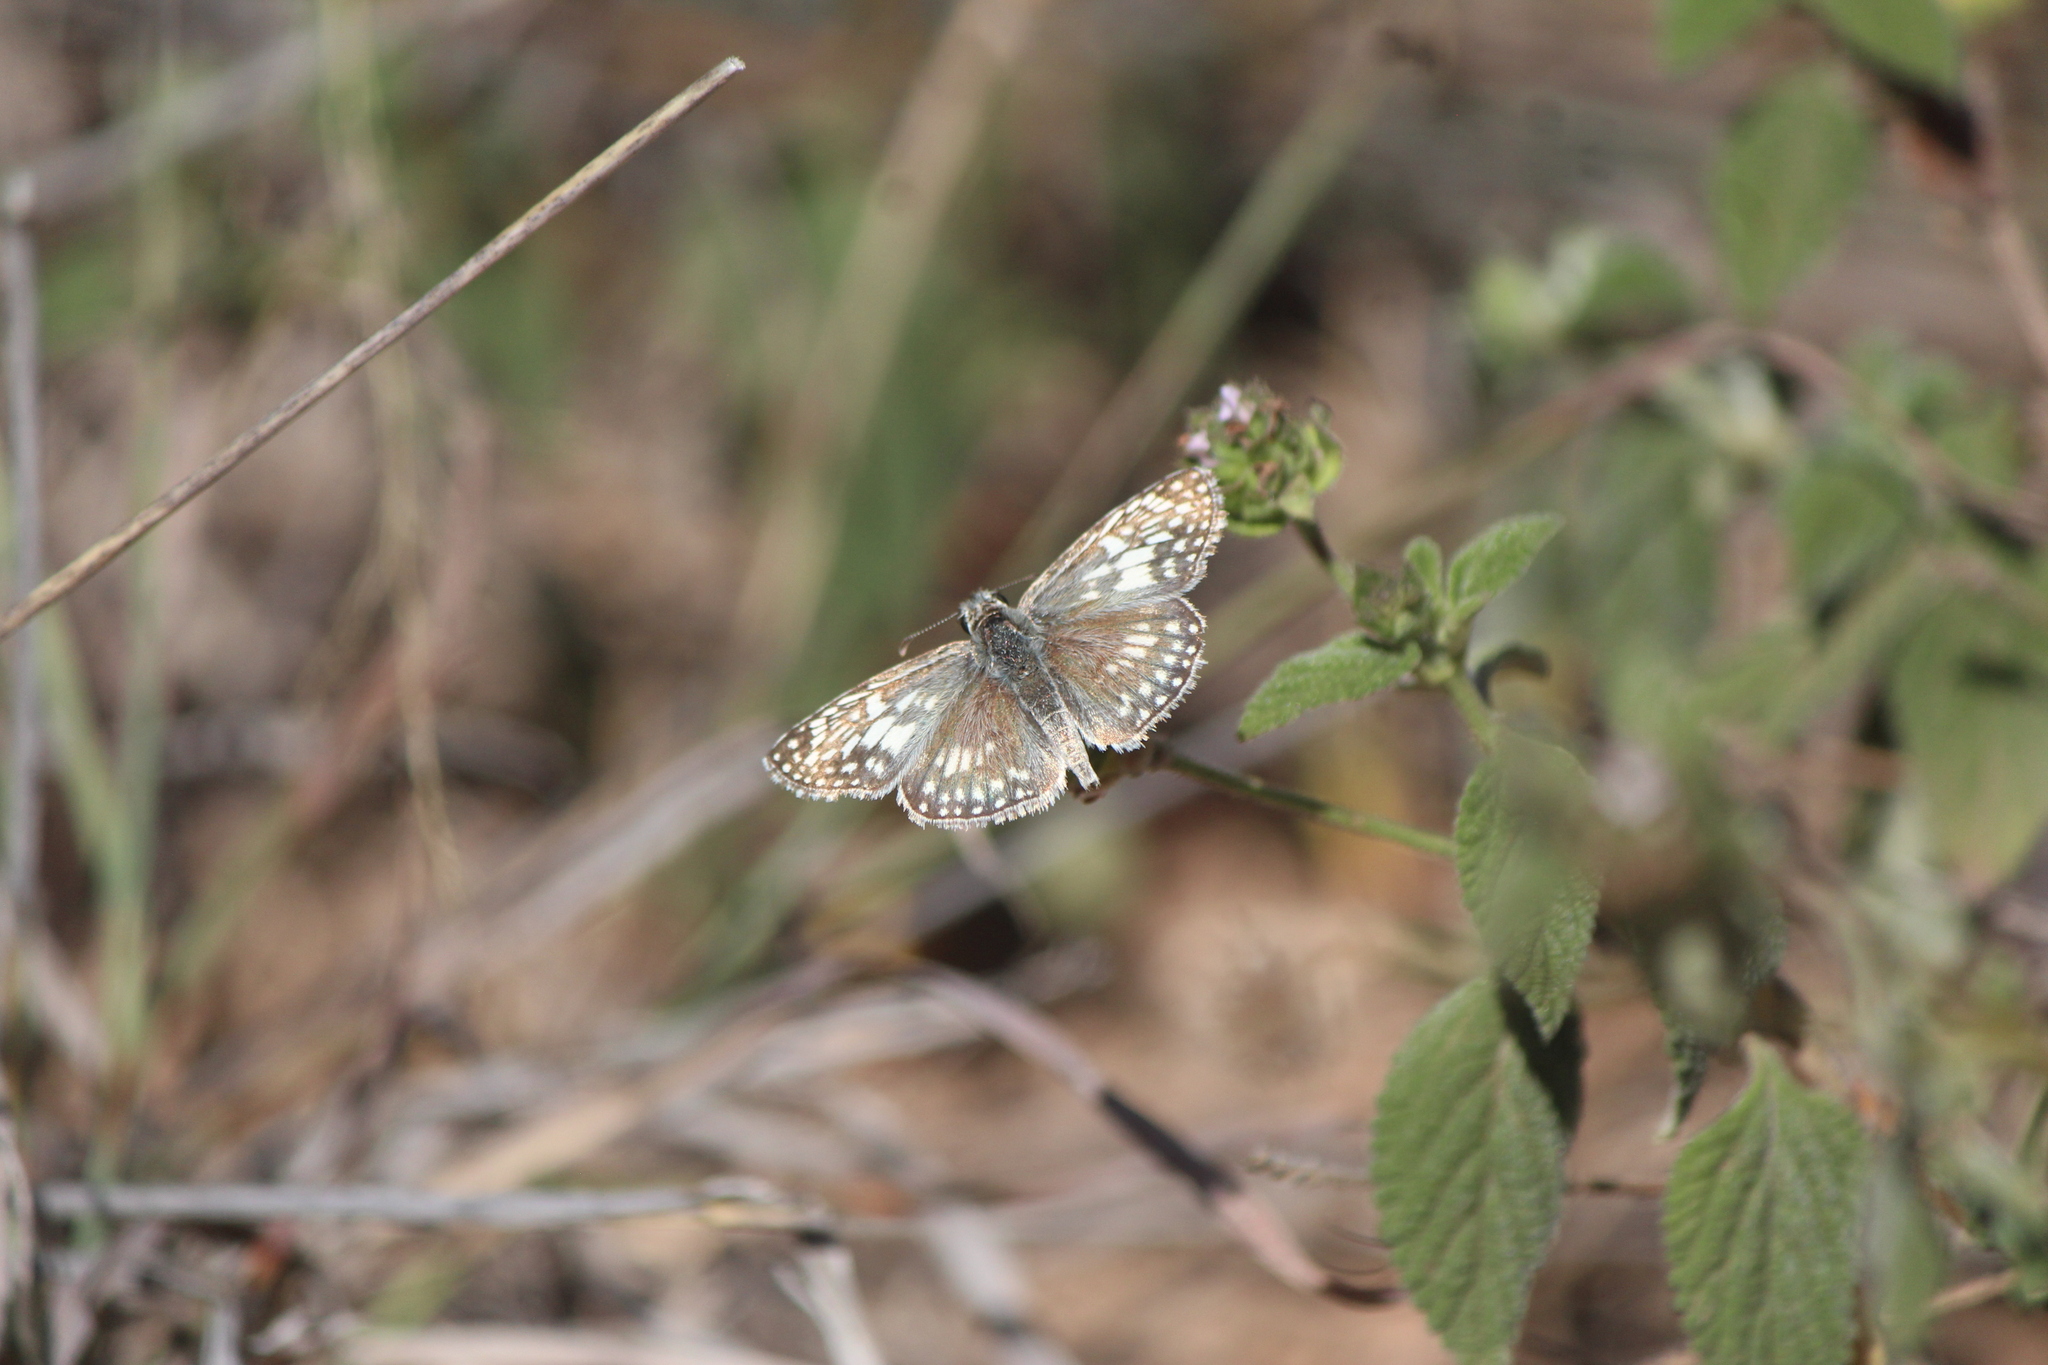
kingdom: Animalia
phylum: Arthropoda
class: Insecta
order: Lepidoptera
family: Hesperiidae
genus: Burnsius
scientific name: Burnsius philetas
